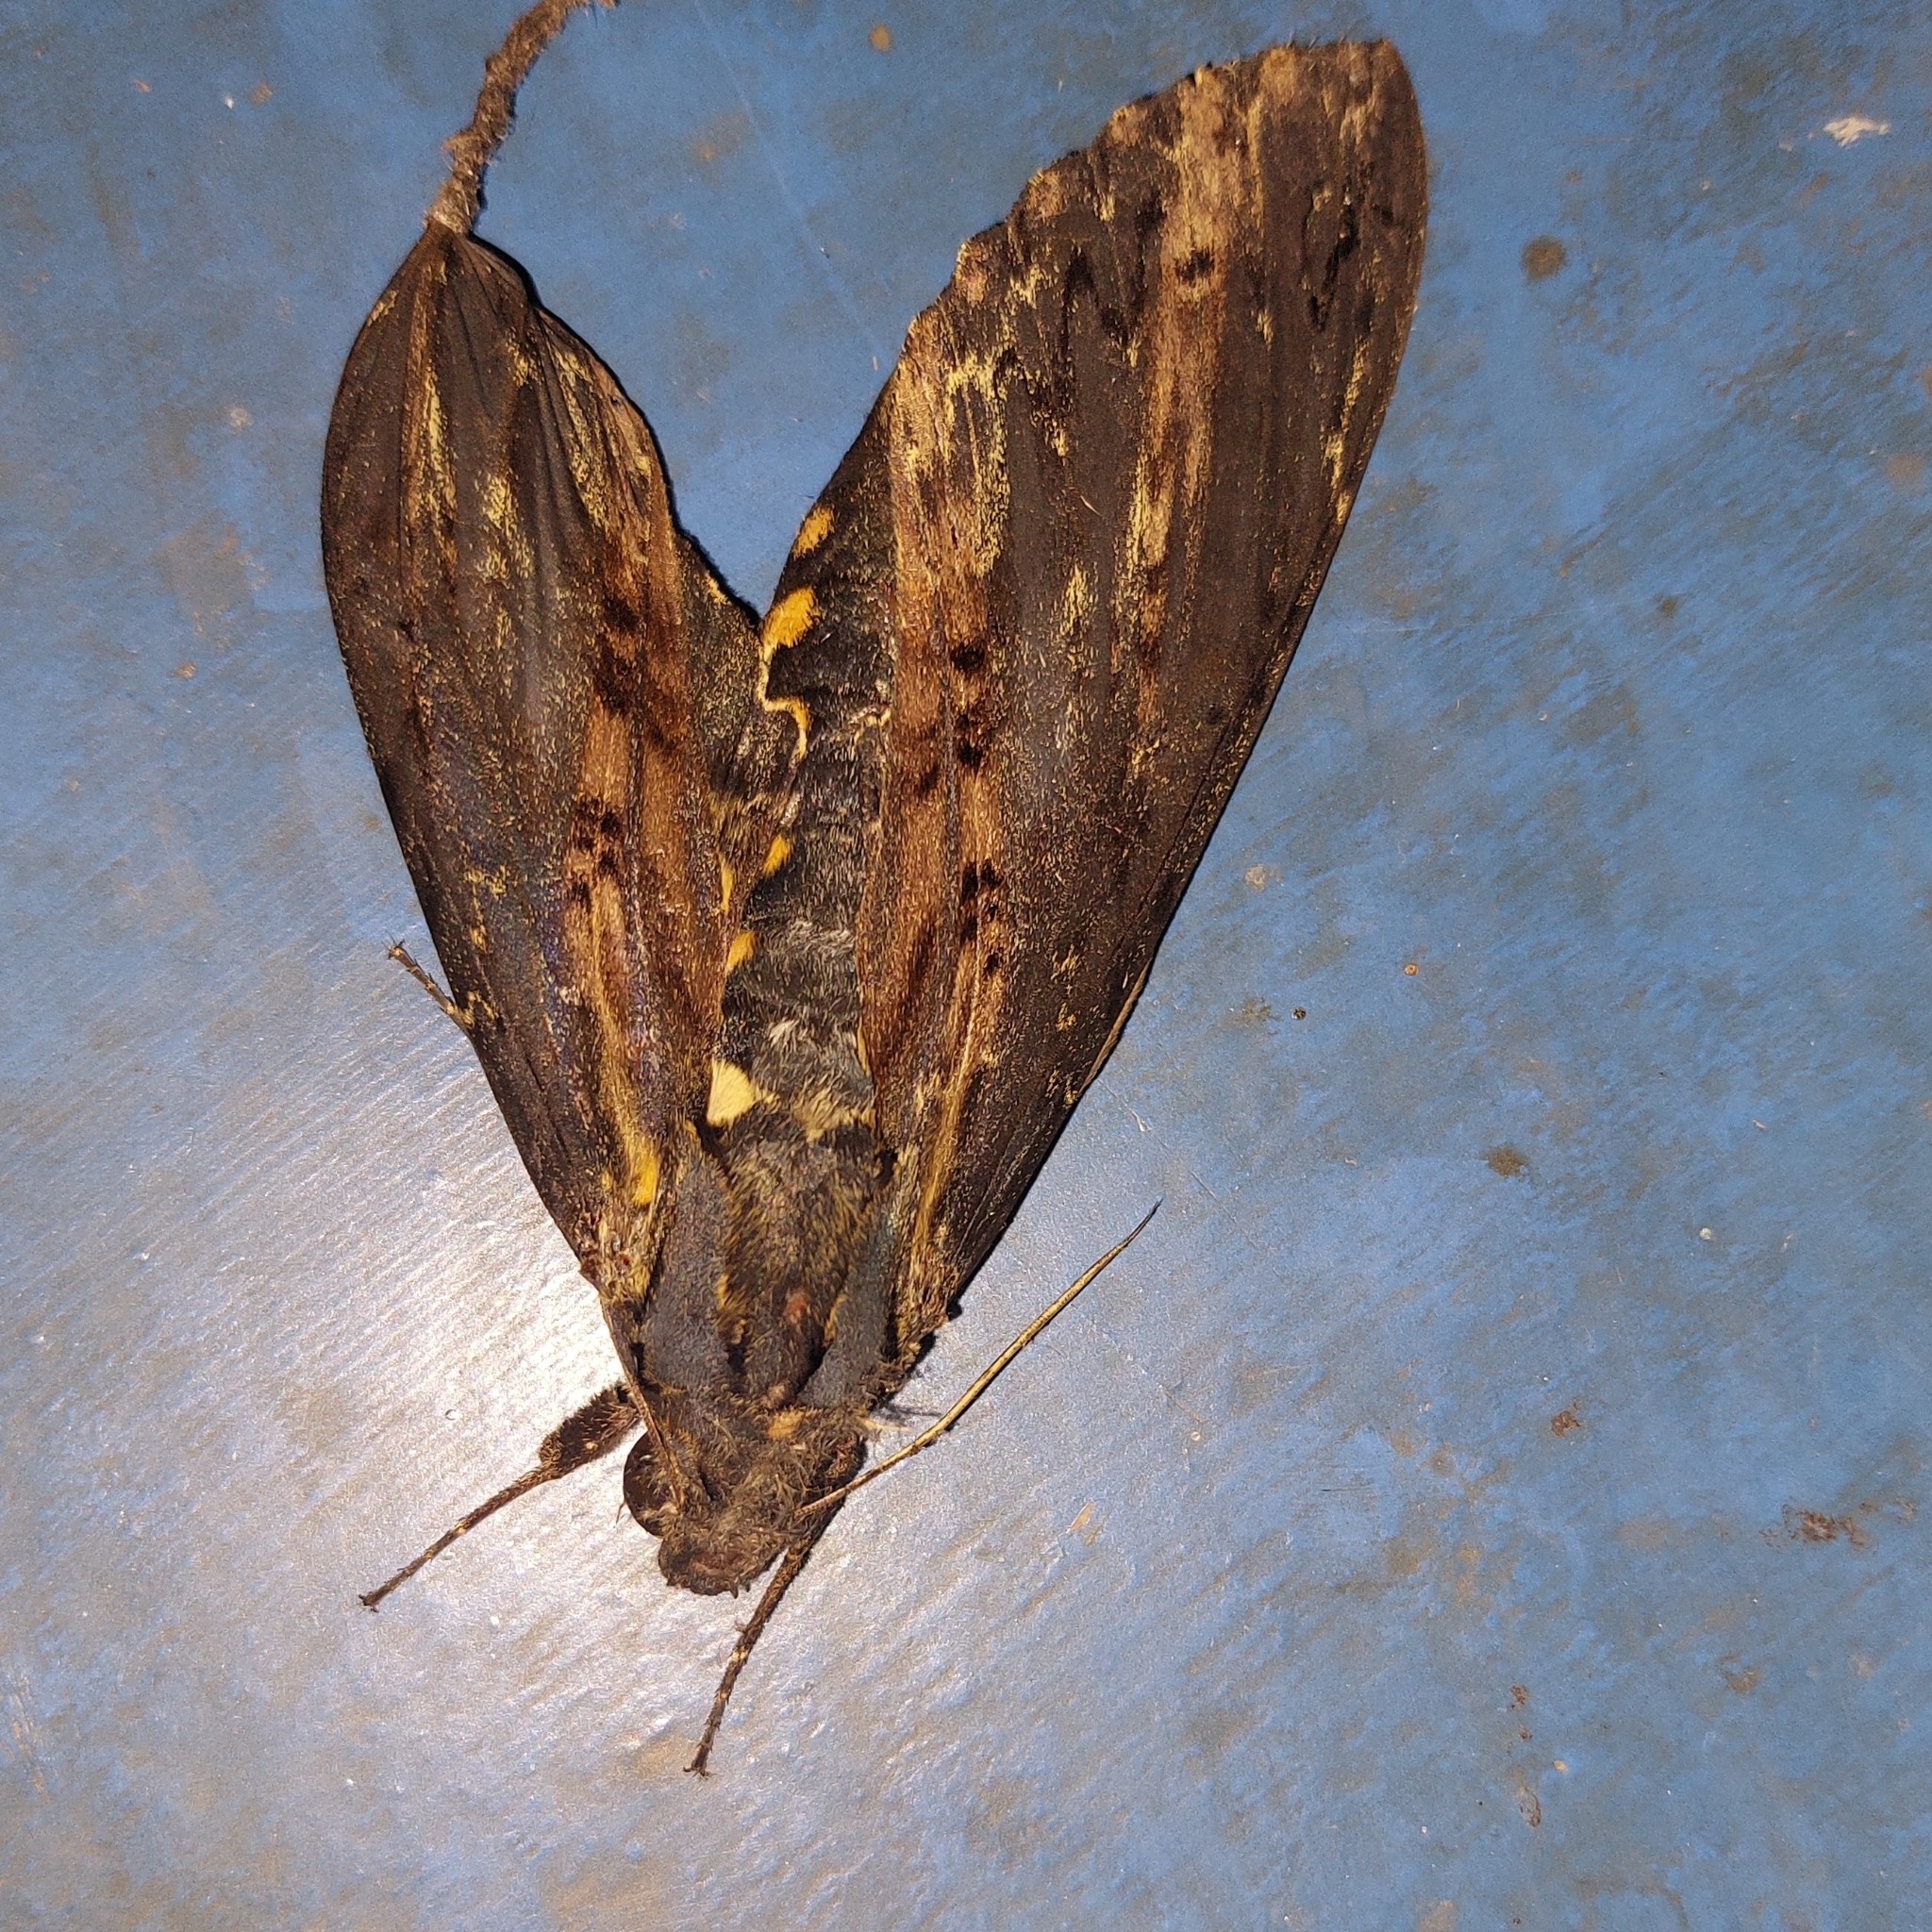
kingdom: Animalia
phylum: Arthropoda
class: Insecta
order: Lepidoptera
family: Sphingidae
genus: Neococytius
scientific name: Neococytius cluentius
